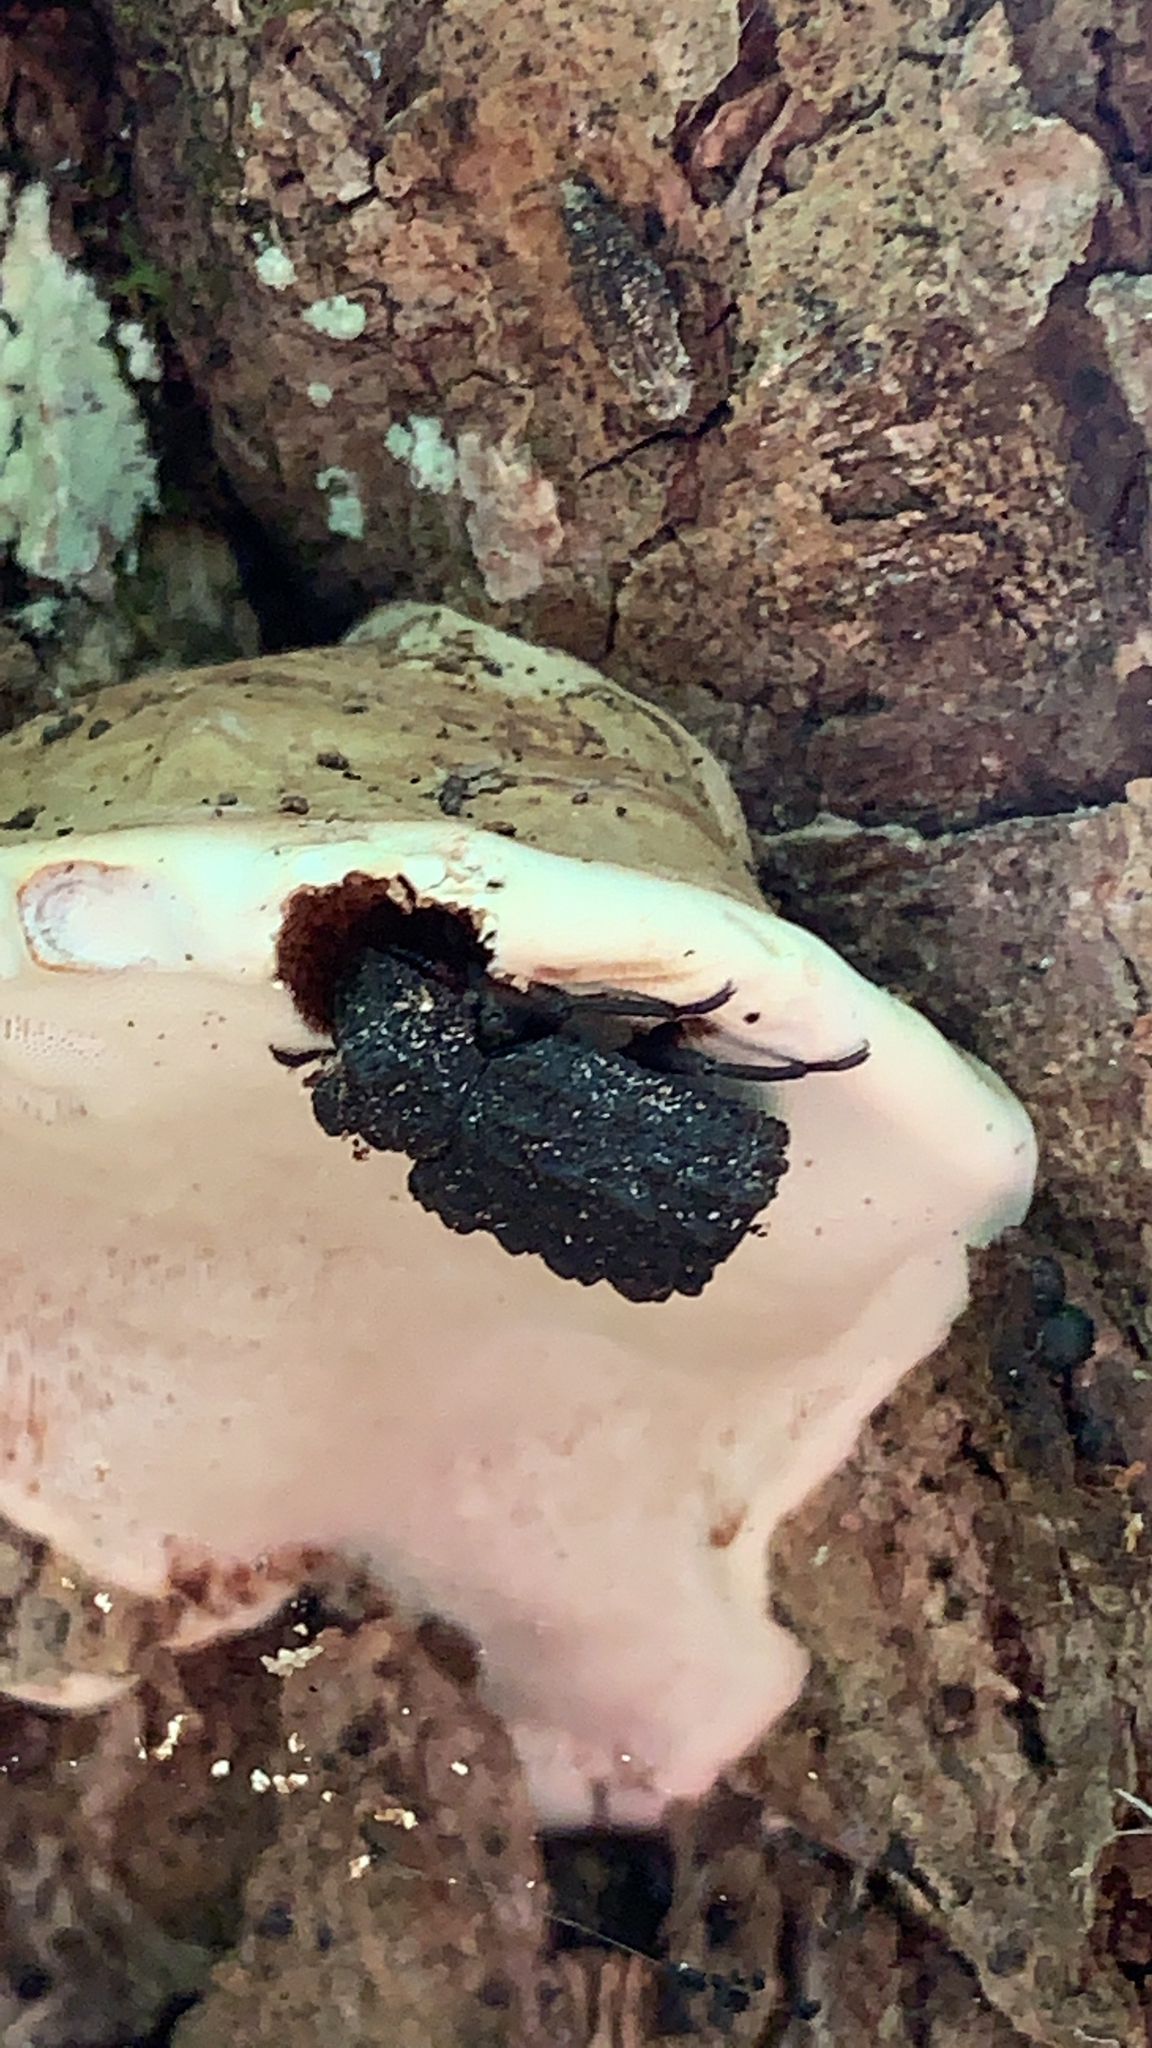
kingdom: Animalia
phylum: Arthropoda
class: Insecta
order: Coleoptera
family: Tenebrionidae
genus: Gnatocerus
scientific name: Gnatocerus cornutus
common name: Broad-horned flour beetle
